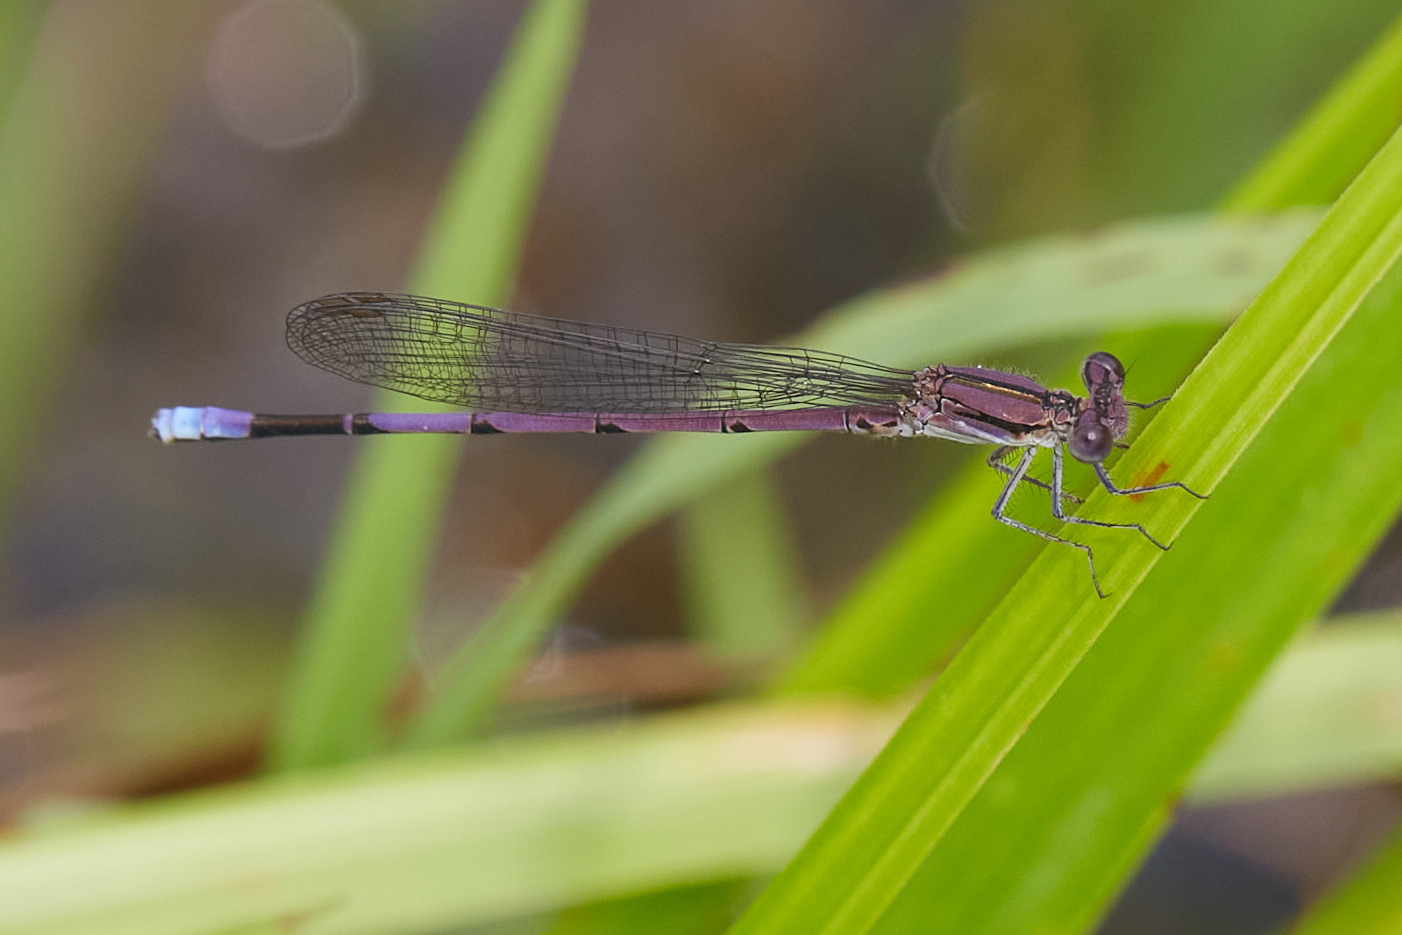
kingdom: Animalia
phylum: Arthropoda
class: Insecta
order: Odonata
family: Coenagrionidae
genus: Argia
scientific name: Argia fumipennis
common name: Variable dancer
